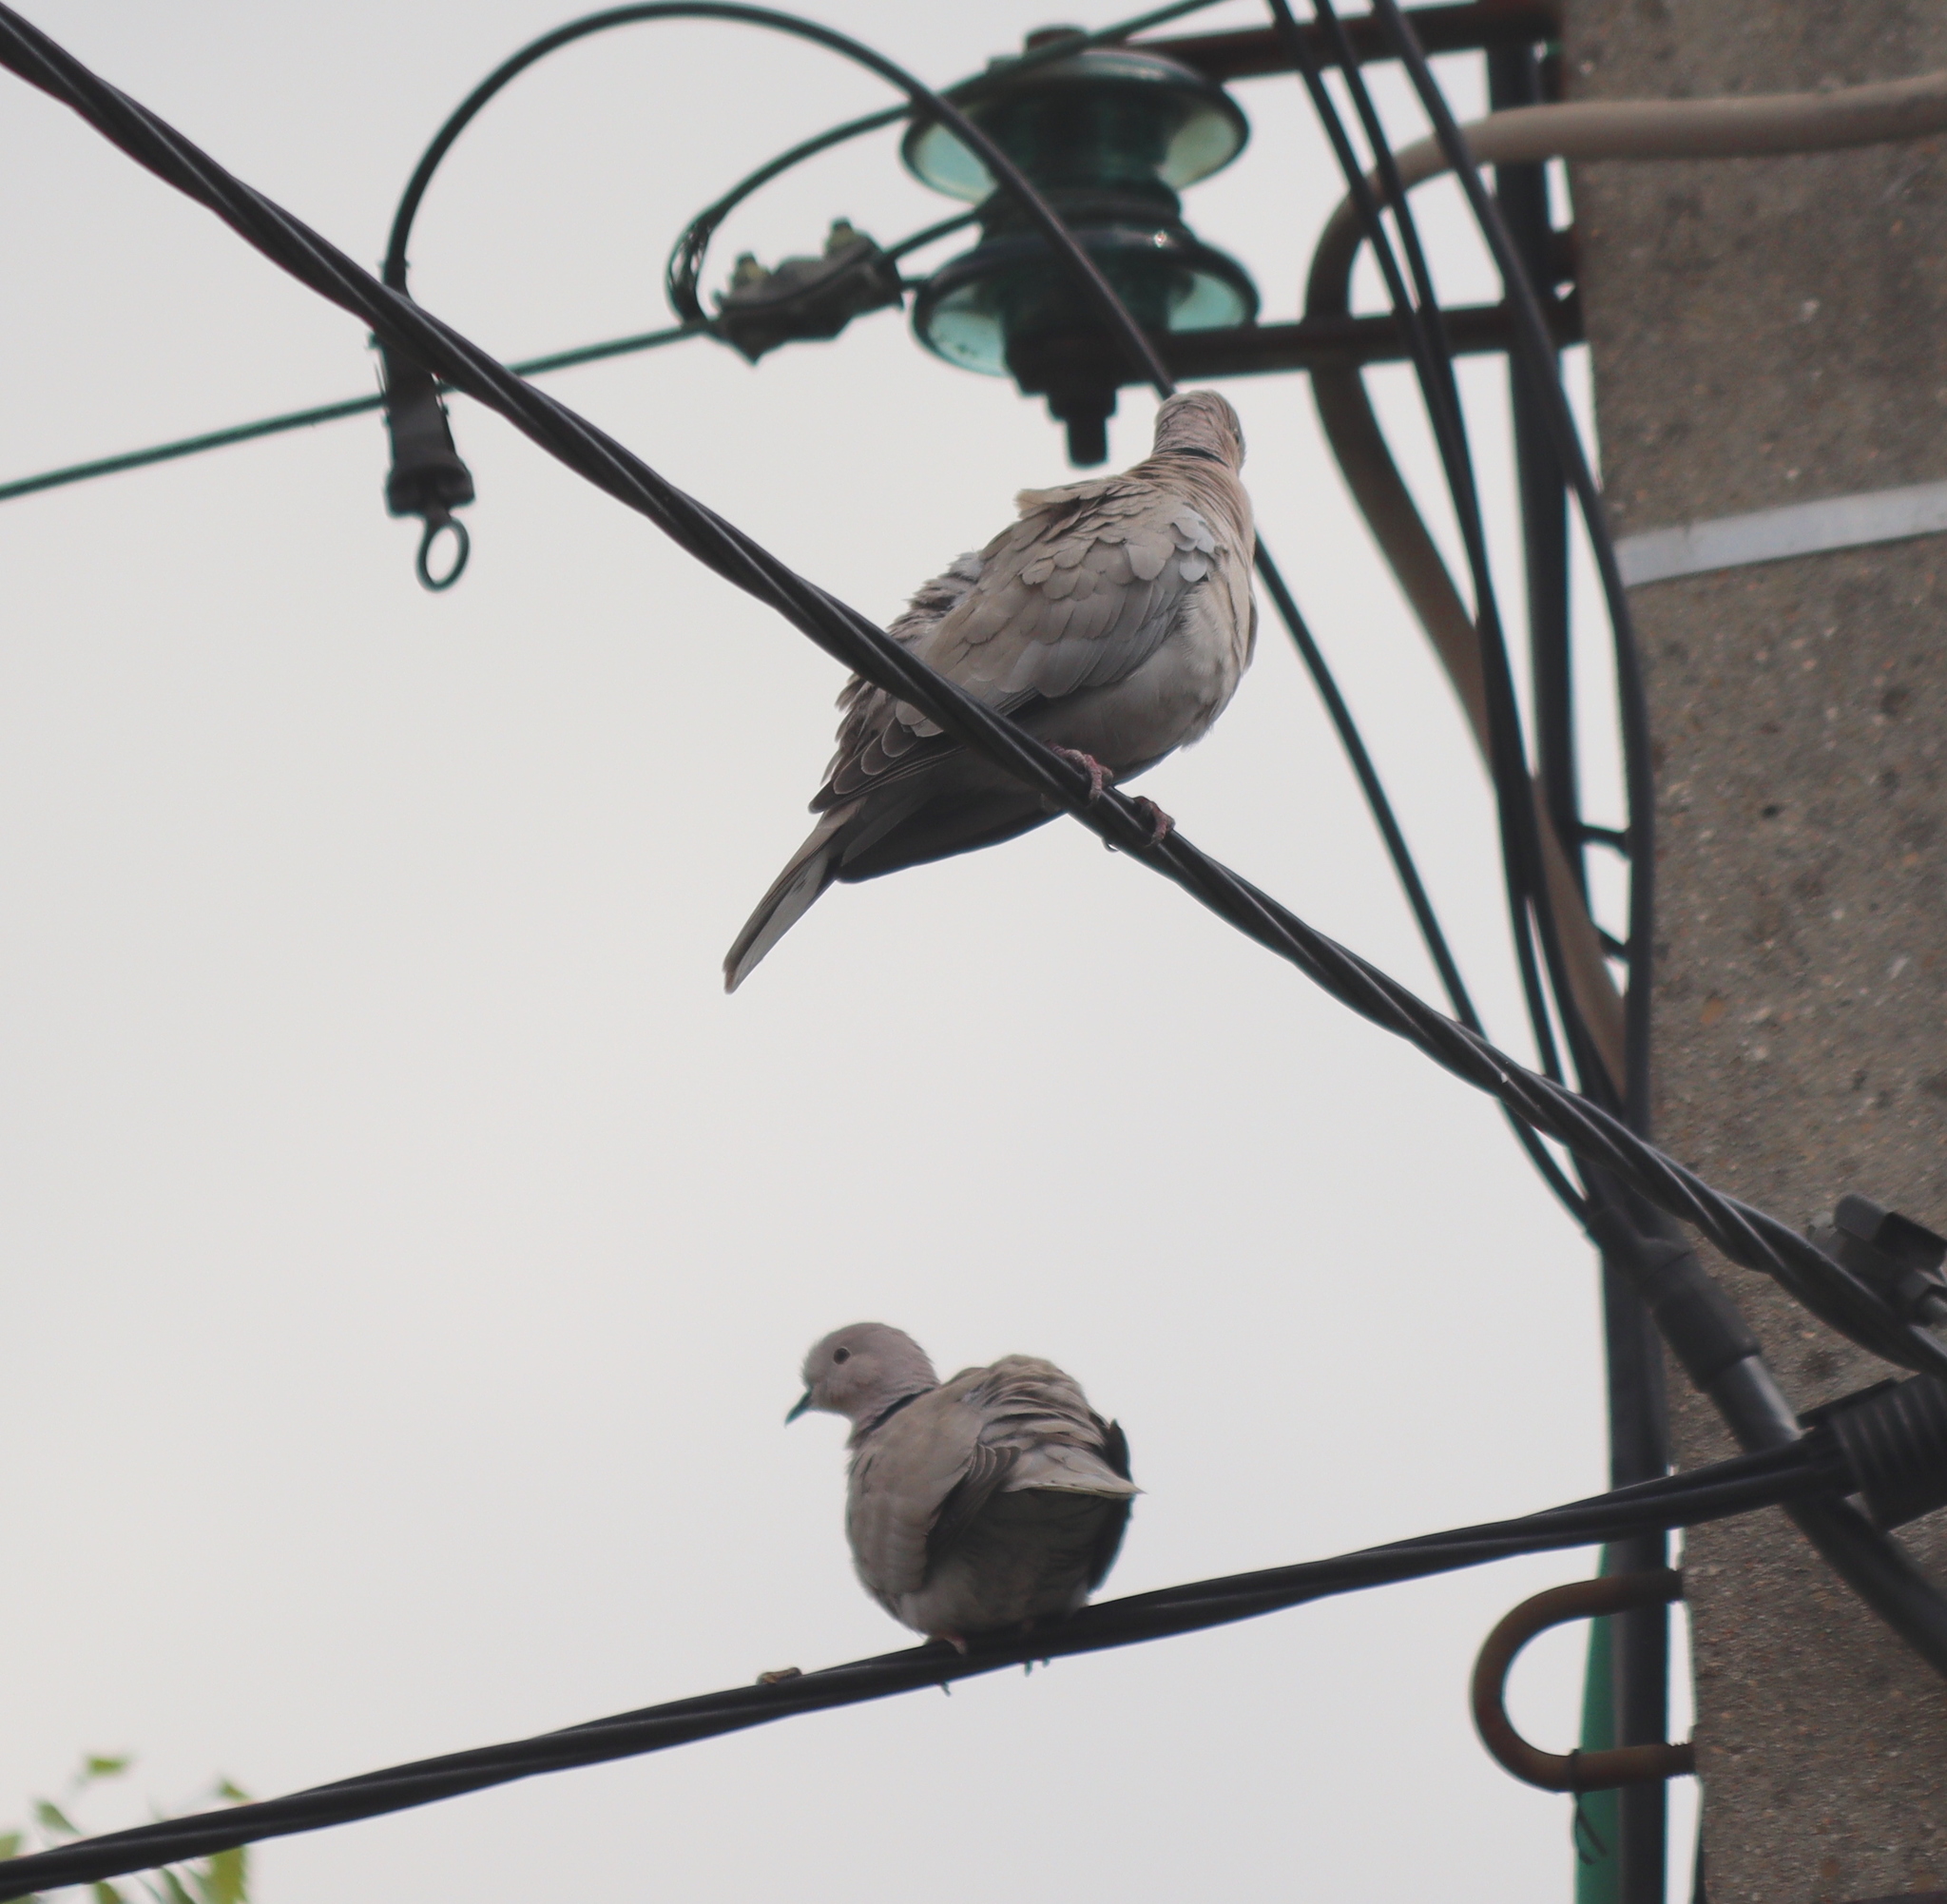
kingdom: Animalia
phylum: Chordata
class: Aves
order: Columbiformes
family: Columbidae
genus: Streptopelia
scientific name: Streptopelia decaocto
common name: Eurasian collared dove
